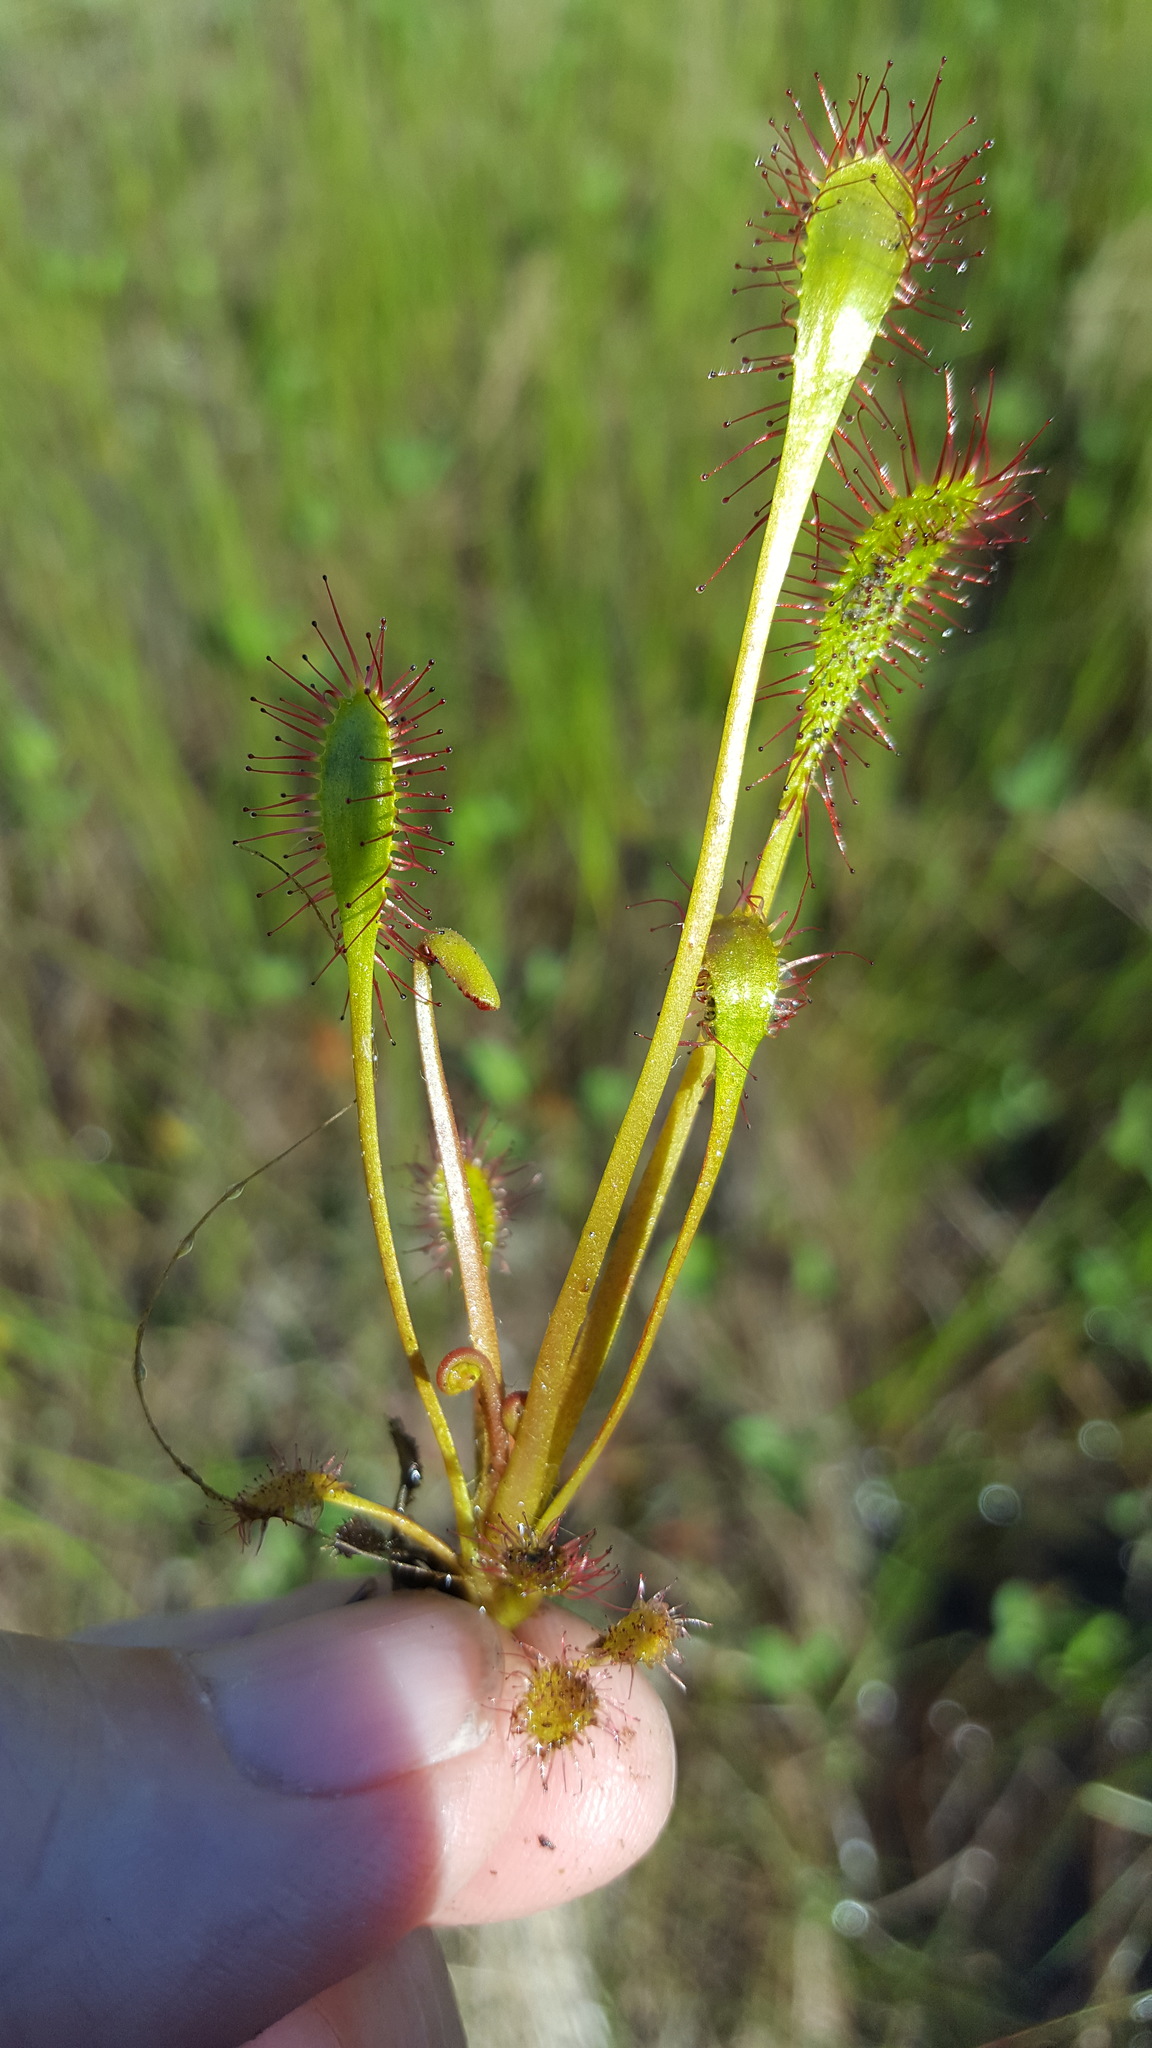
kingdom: Plantae
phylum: Tracheophyta
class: Magnoliopsida
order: Caryophyllales
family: Droseraceae
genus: Drosera
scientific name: Drosera anglica
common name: Great sundew
